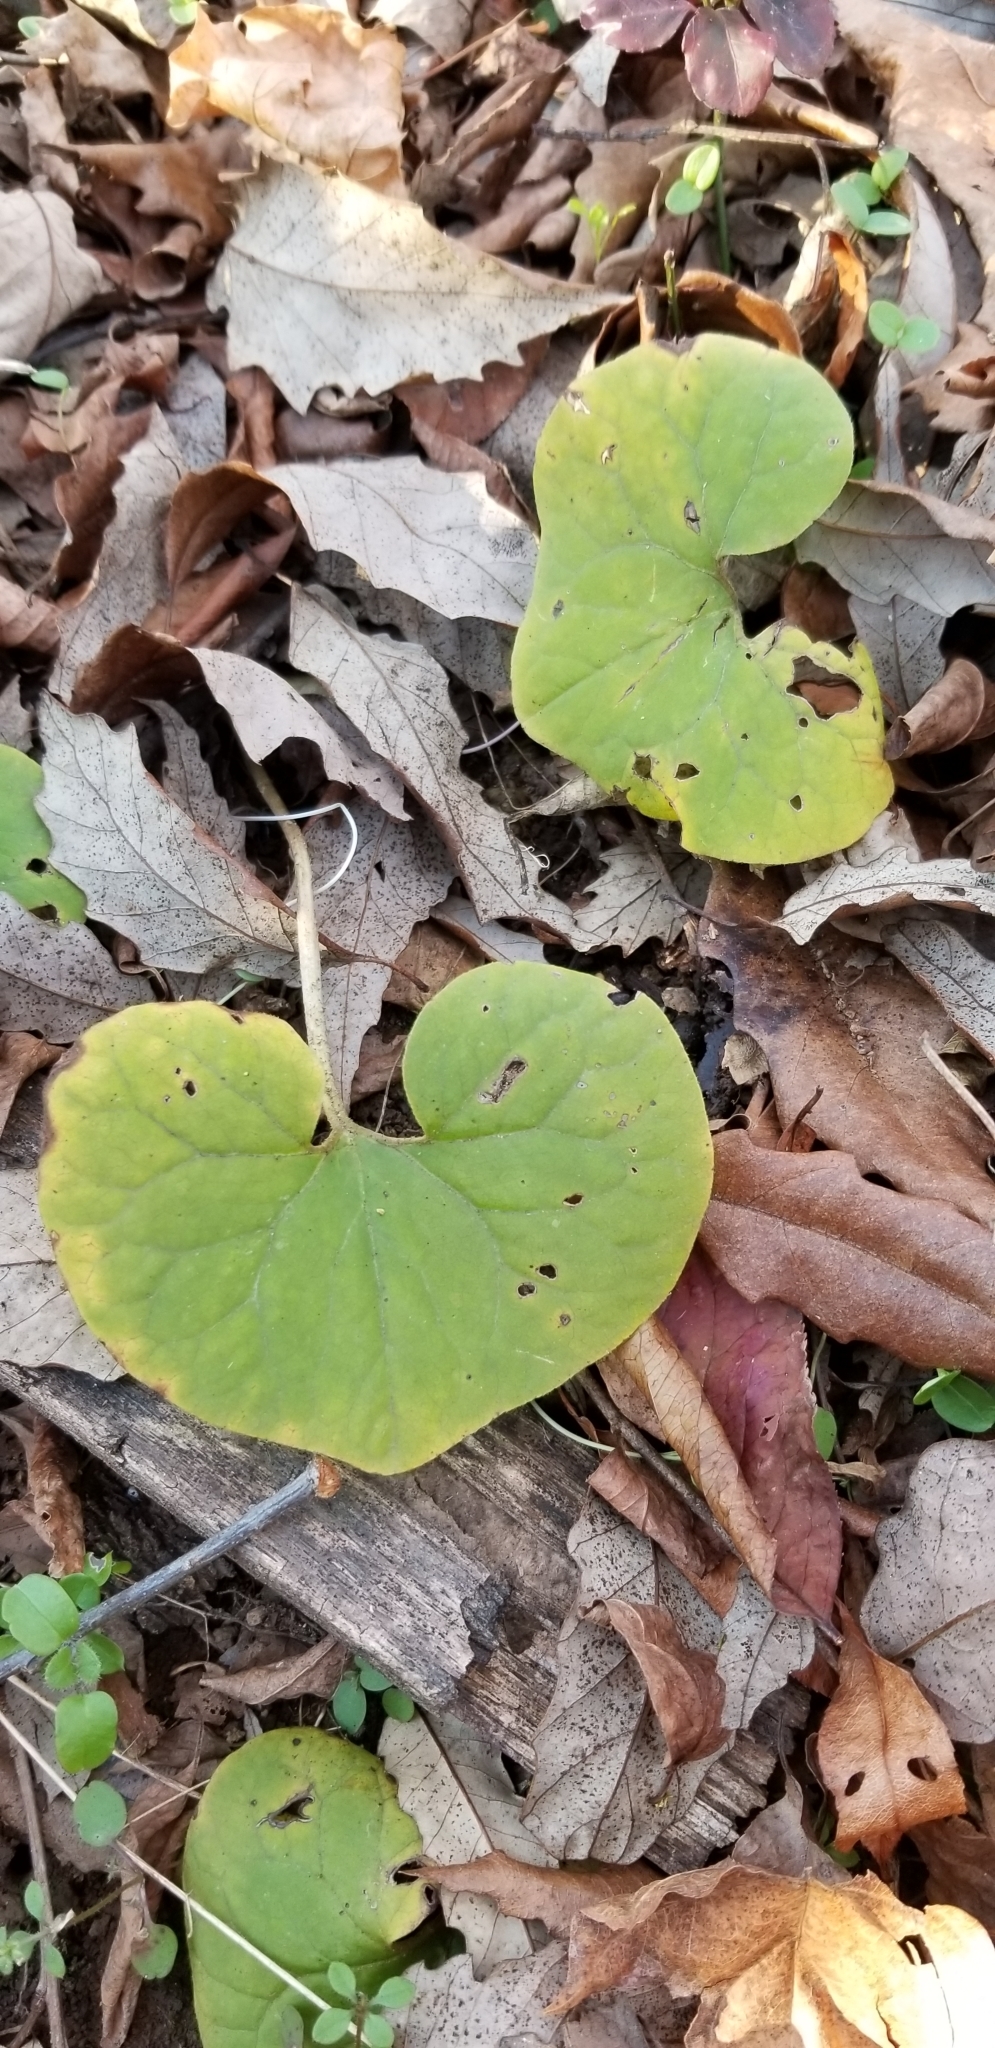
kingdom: Plantae
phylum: Tracheophyta
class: Magnoliopsida
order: Piperales
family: Aristolochiaceae
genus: Asarum
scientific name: Asarum canadense
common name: Wild ginger
